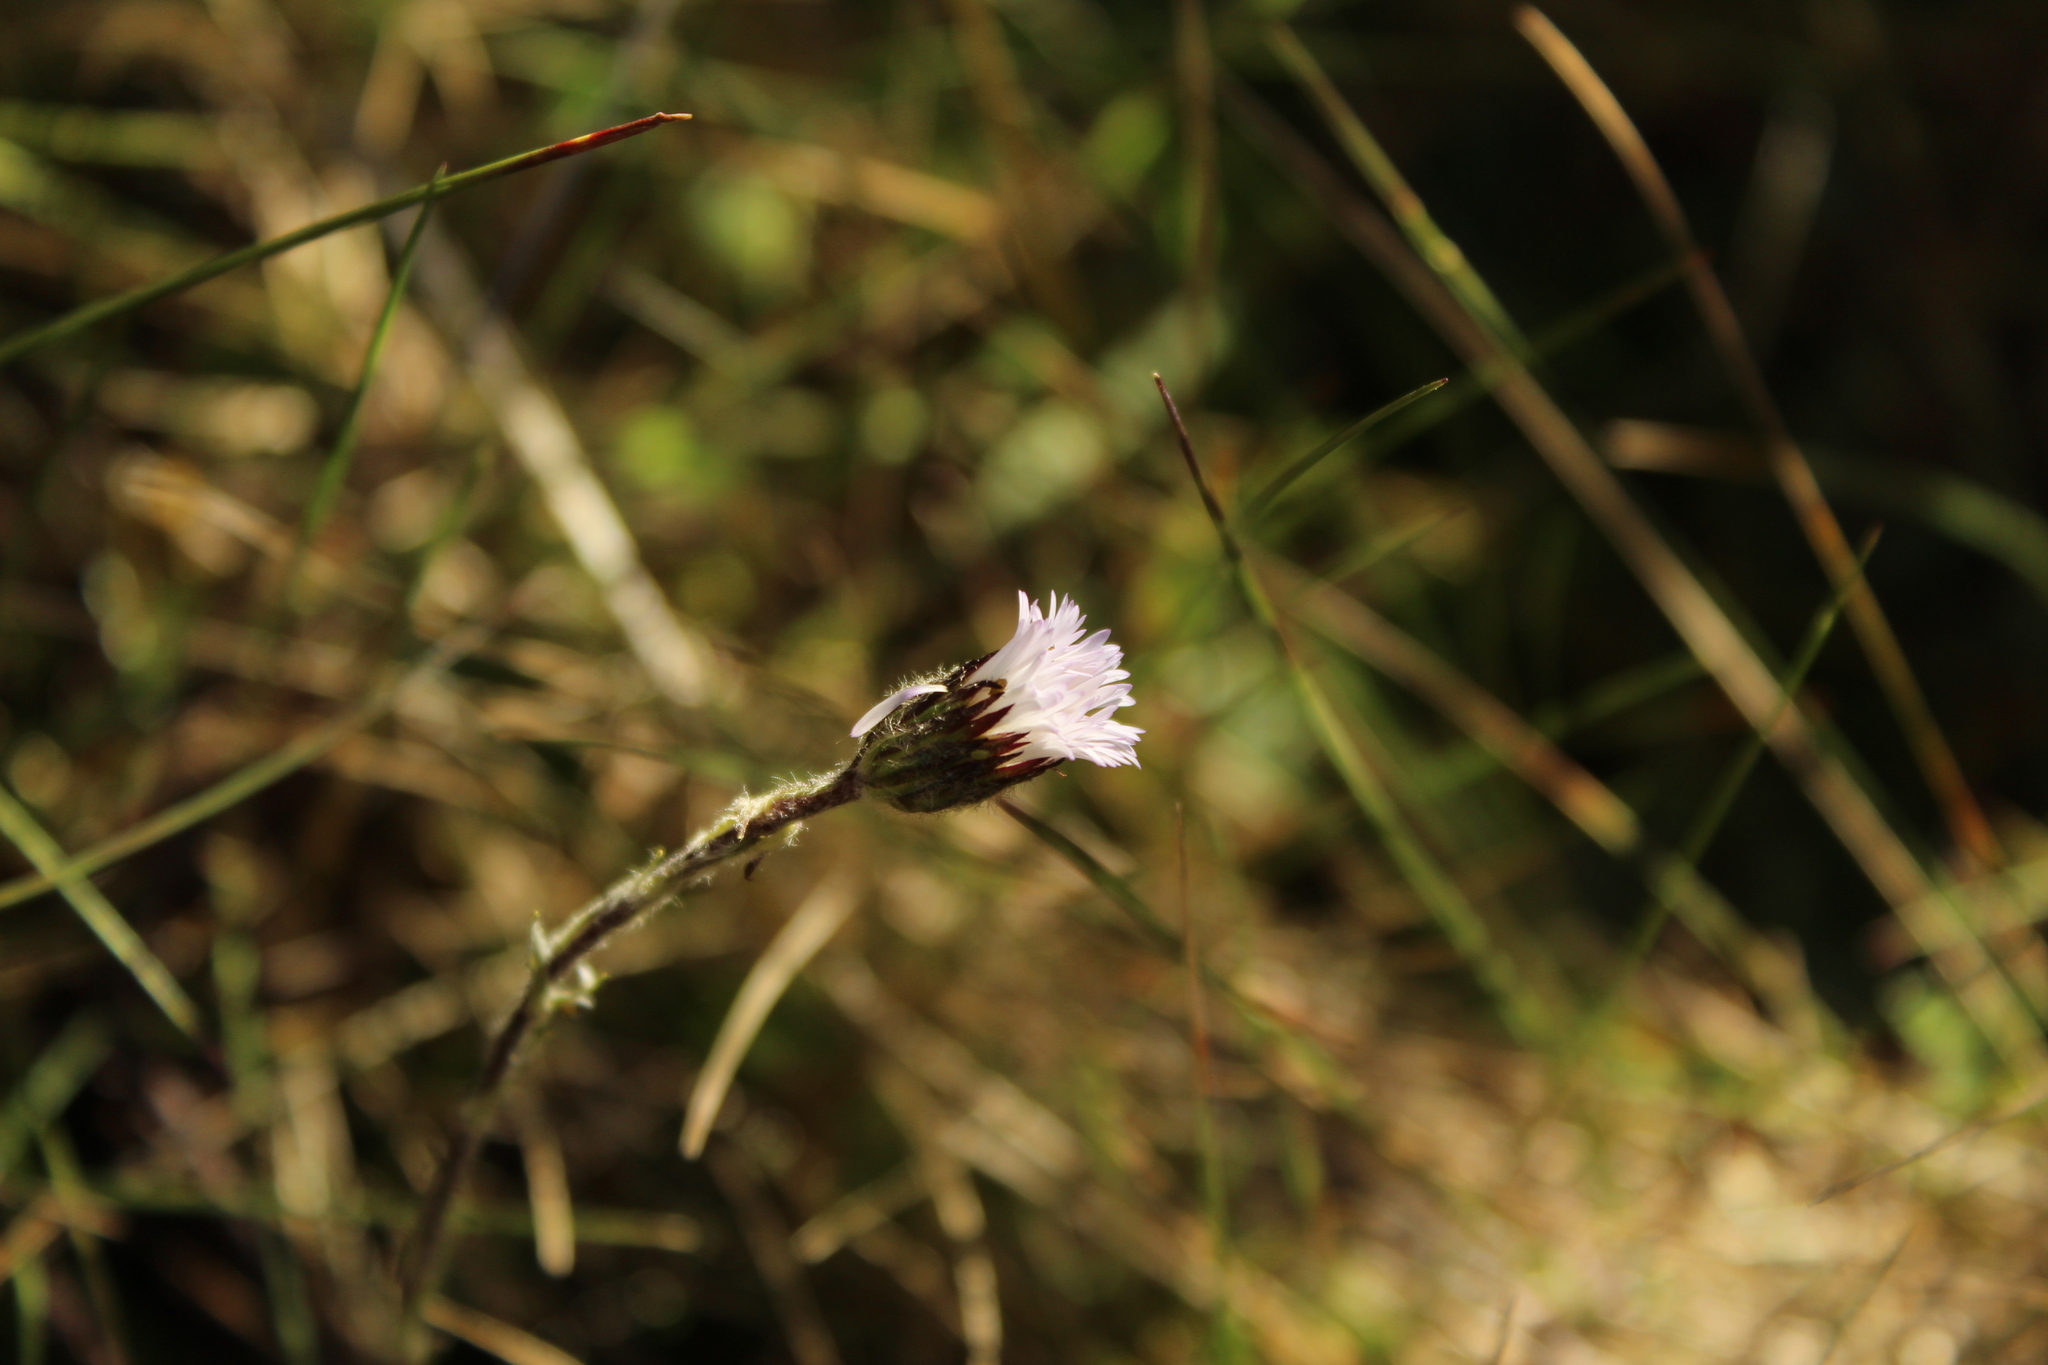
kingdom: Plantae
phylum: Tracheophyta
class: Magnoliopsida
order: Asterales
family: Asteraceae
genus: Oritrophium
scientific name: Oritrophium peruvianum
